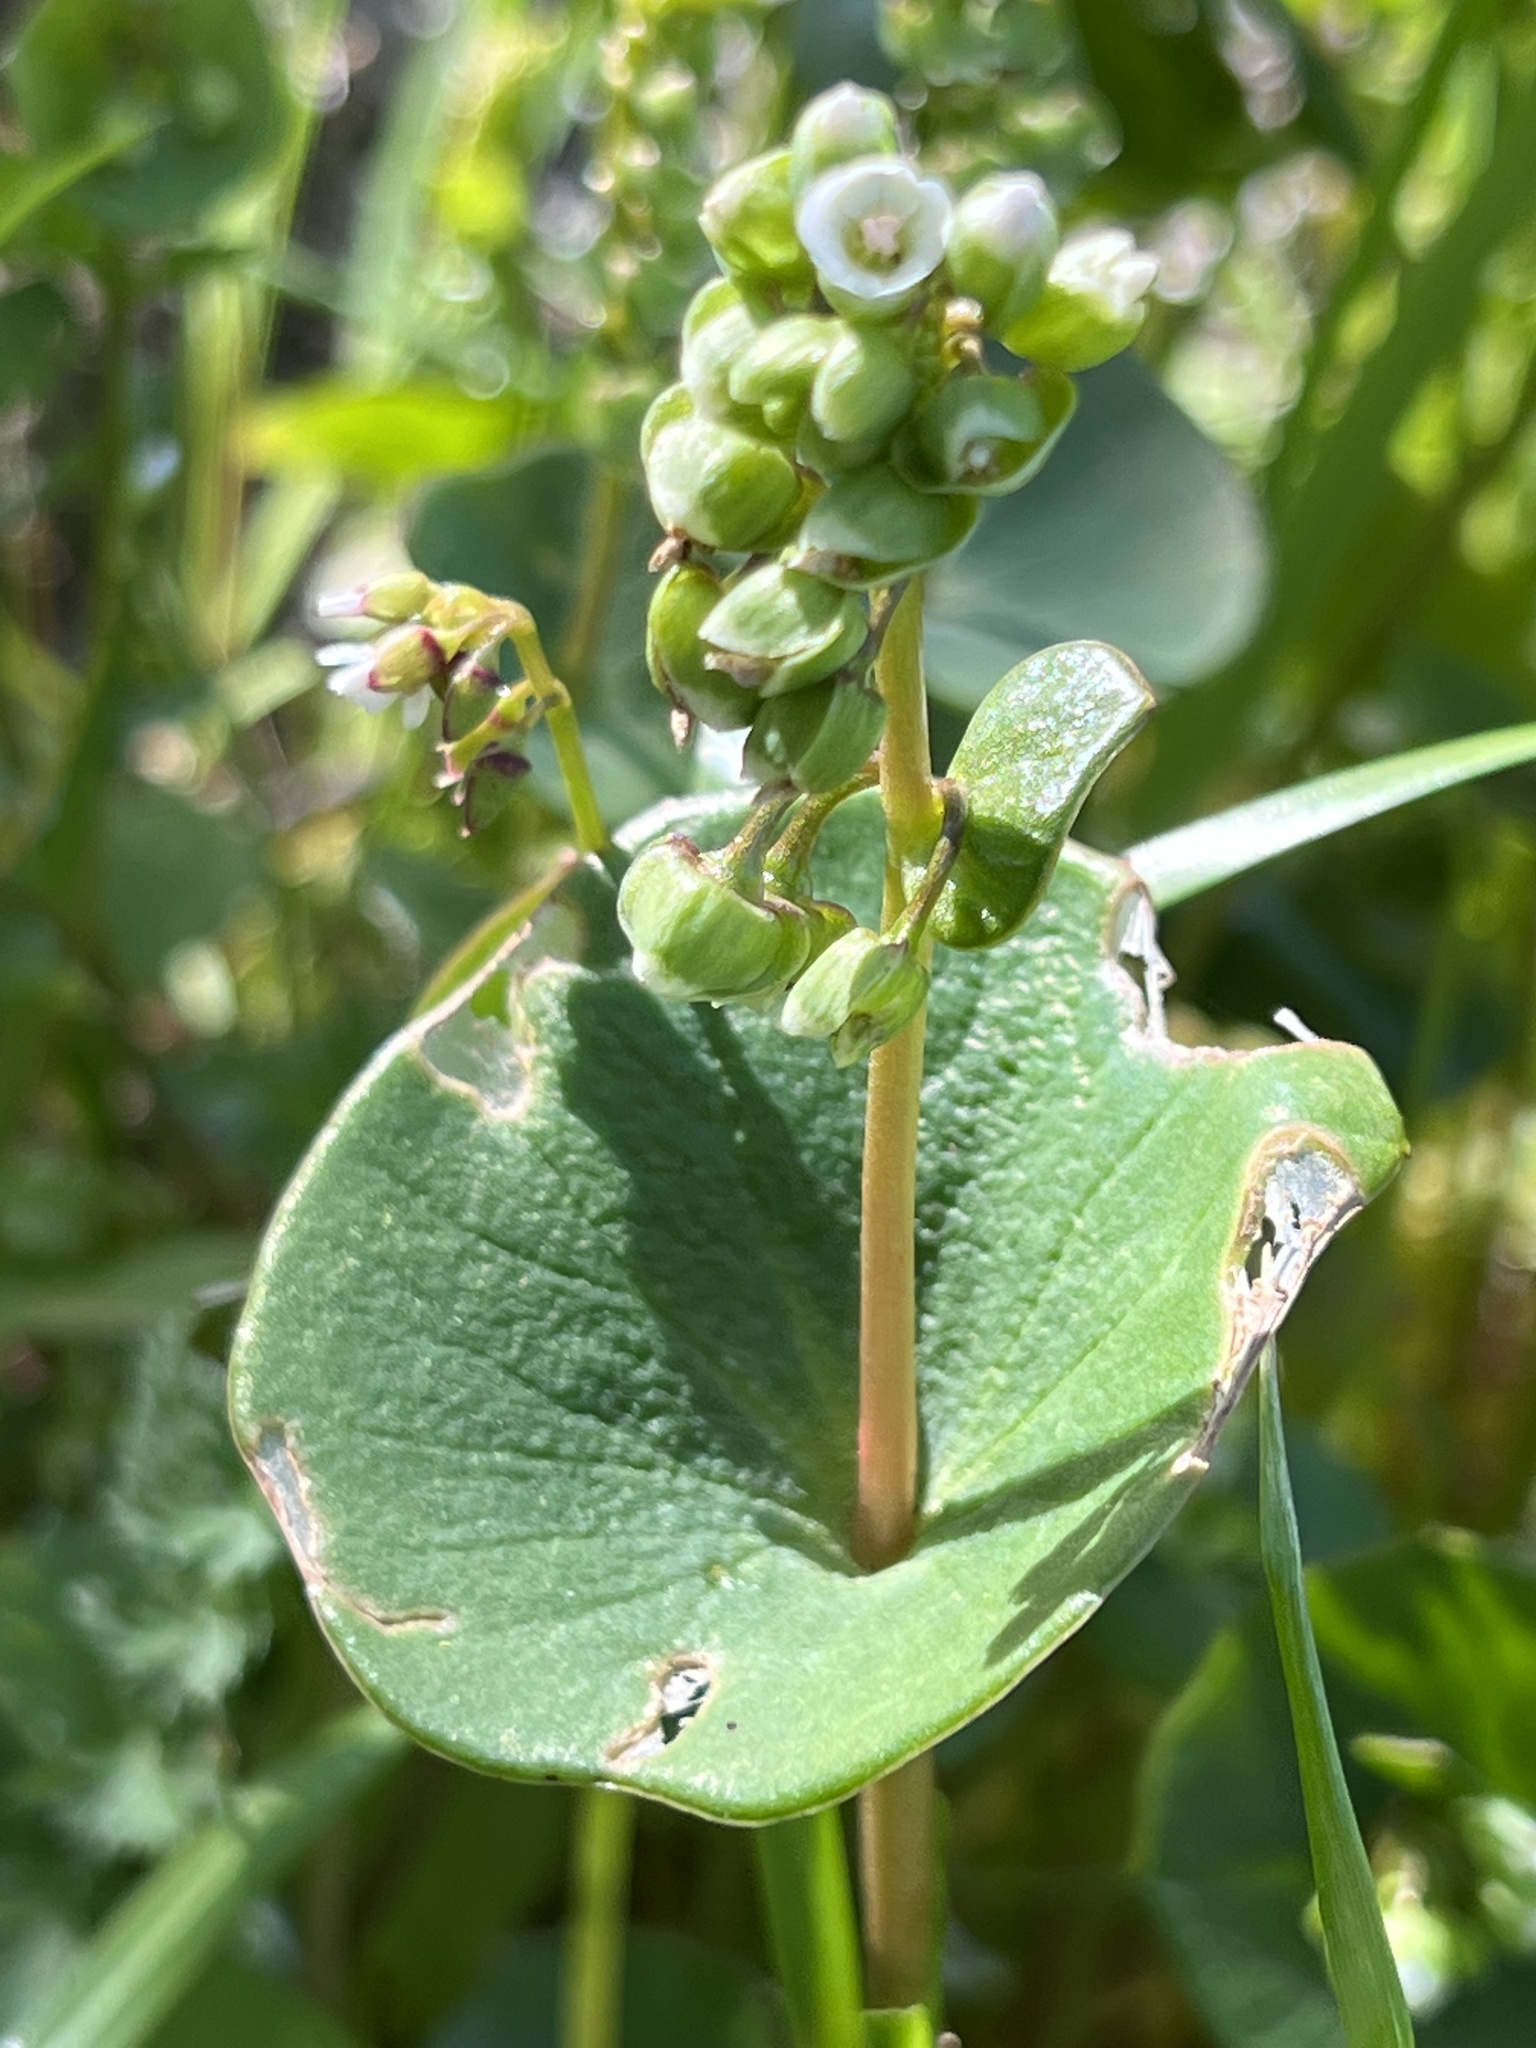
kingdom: Plantae
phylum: Tracheophyta
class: Magnoliopsida
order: Caryophyllales
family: Montiaceae
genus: Claytonia
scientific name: Claytonia perfoliata
